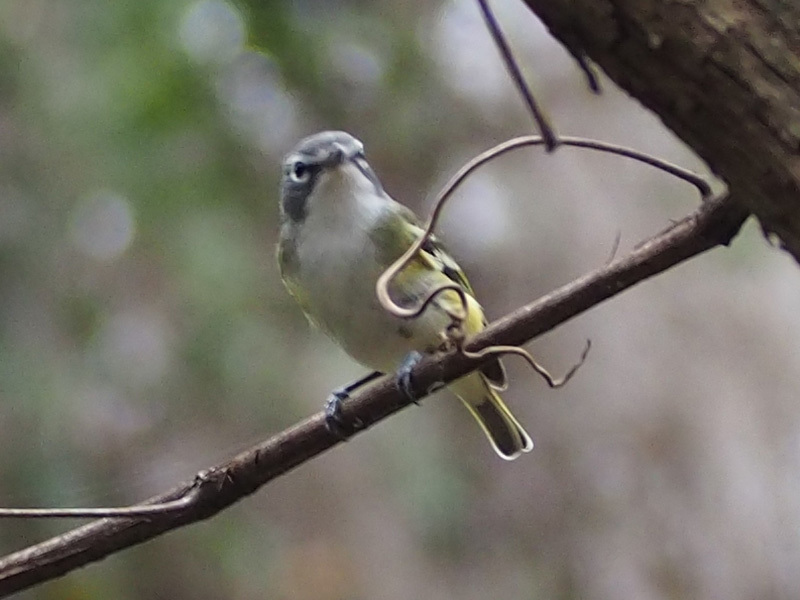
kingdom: Animalia
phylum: Chordata
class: Aves
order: Passeriformes
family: Vireonidae
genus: Vireo
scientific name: Vireo solitarius
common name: Blue-headed vireo
